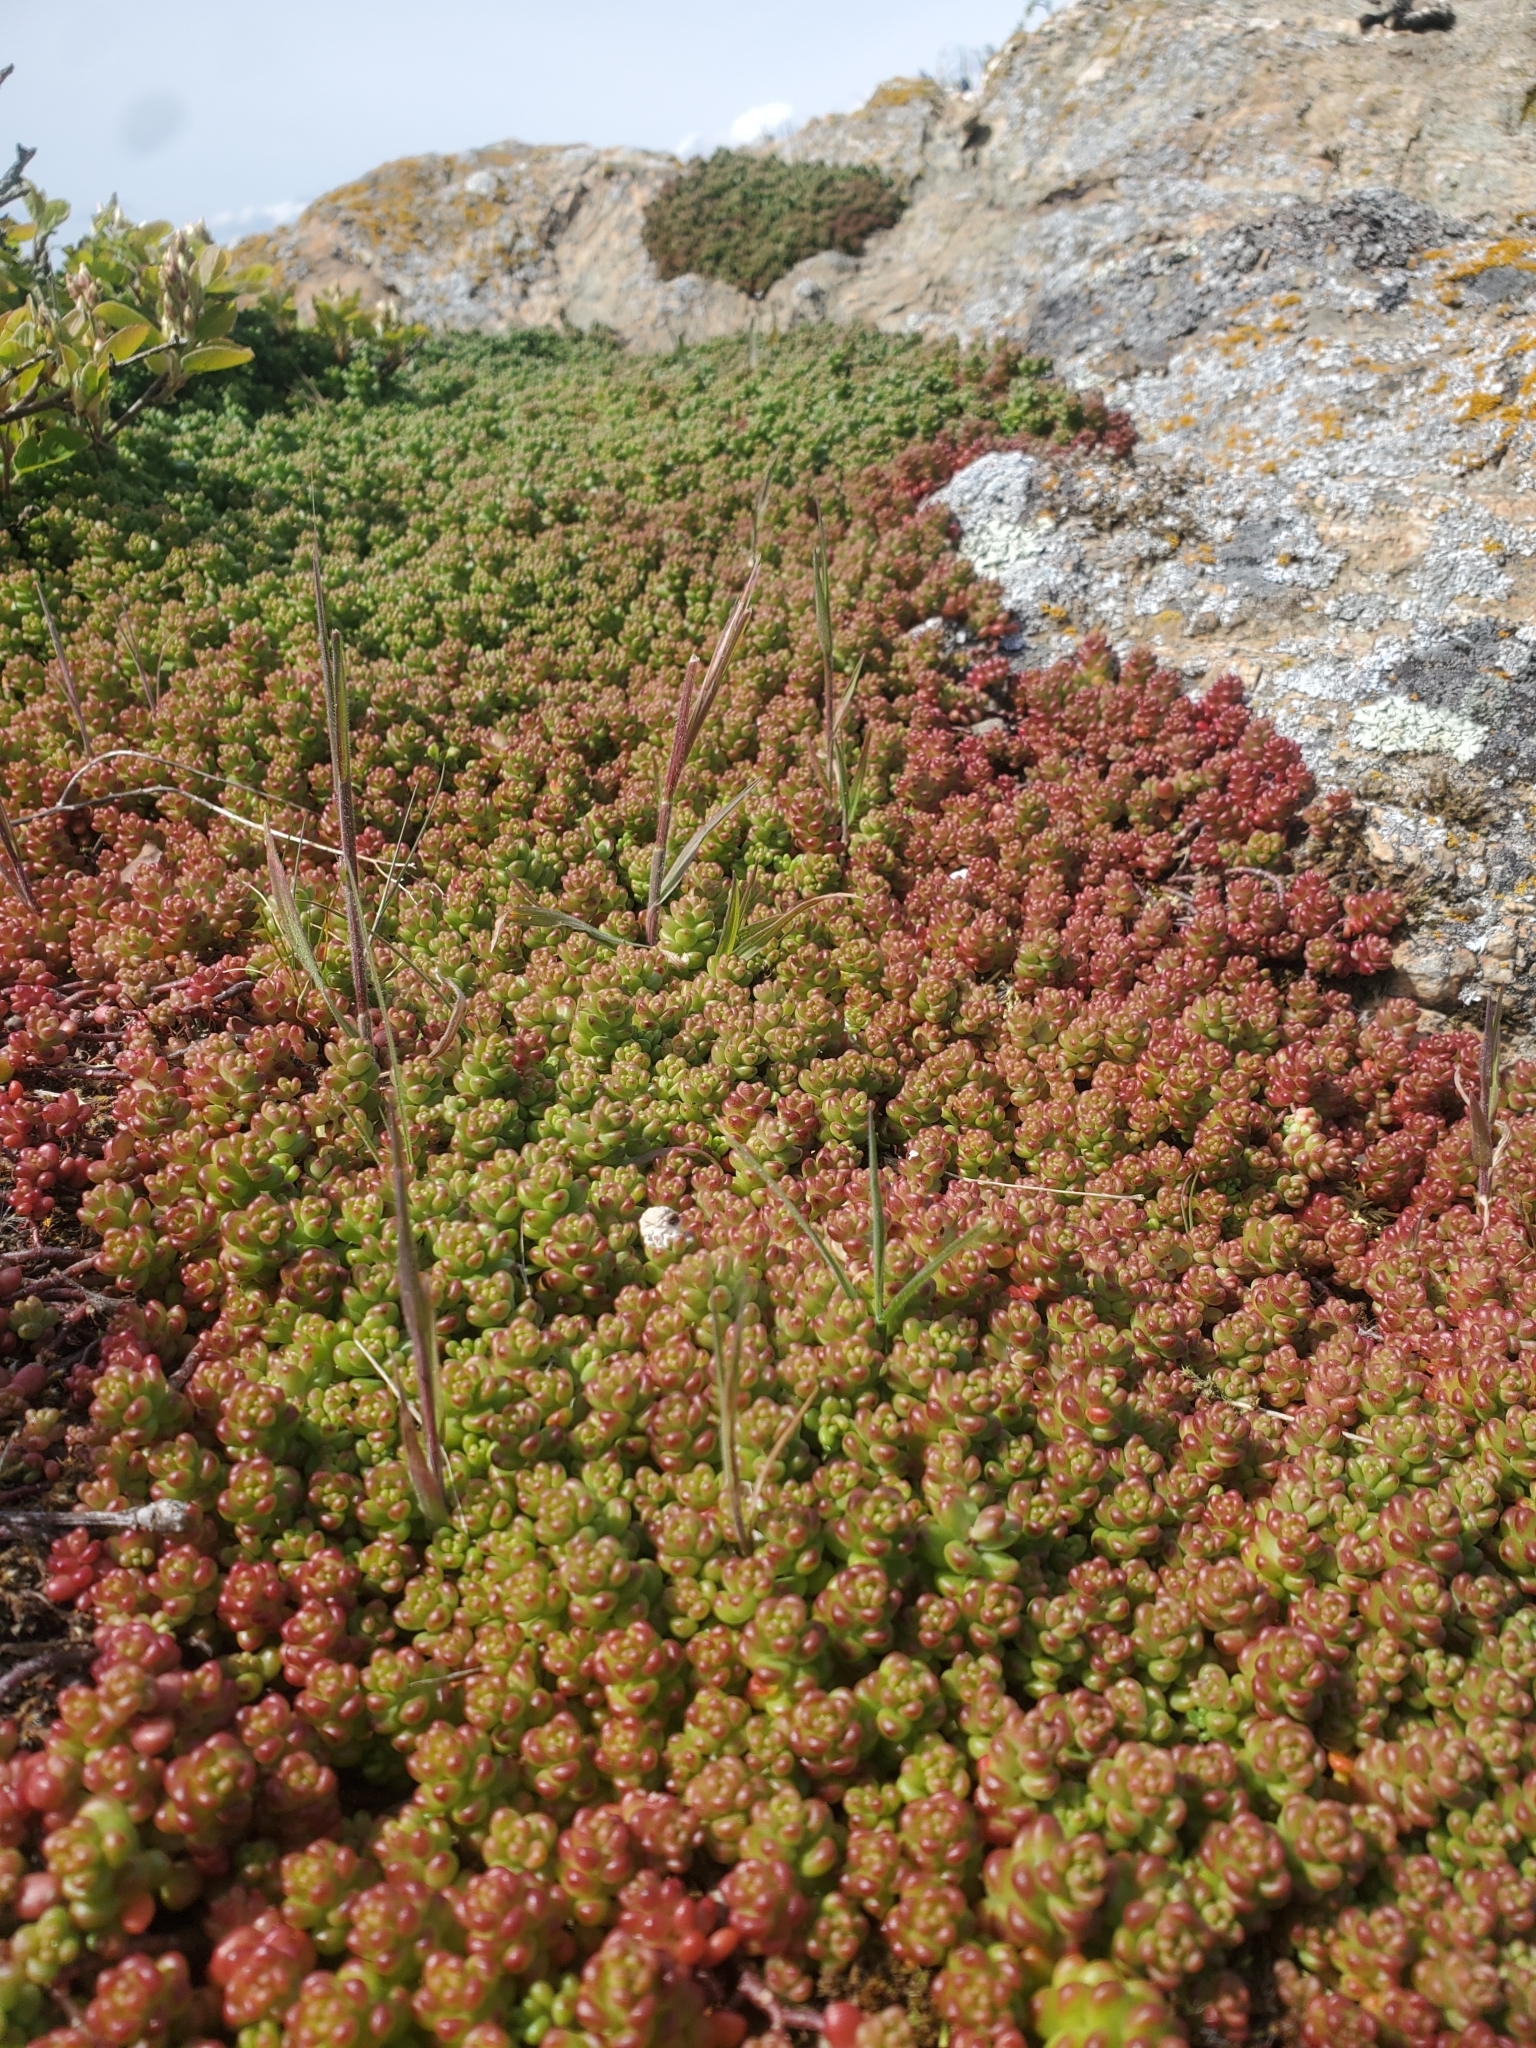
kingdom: Plantae
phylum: Tracheophyta
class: Magnoliopsida
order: Saxifragales
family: Crassulaceae
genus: Sedum
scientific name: Sedum album
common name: White stonecrop
